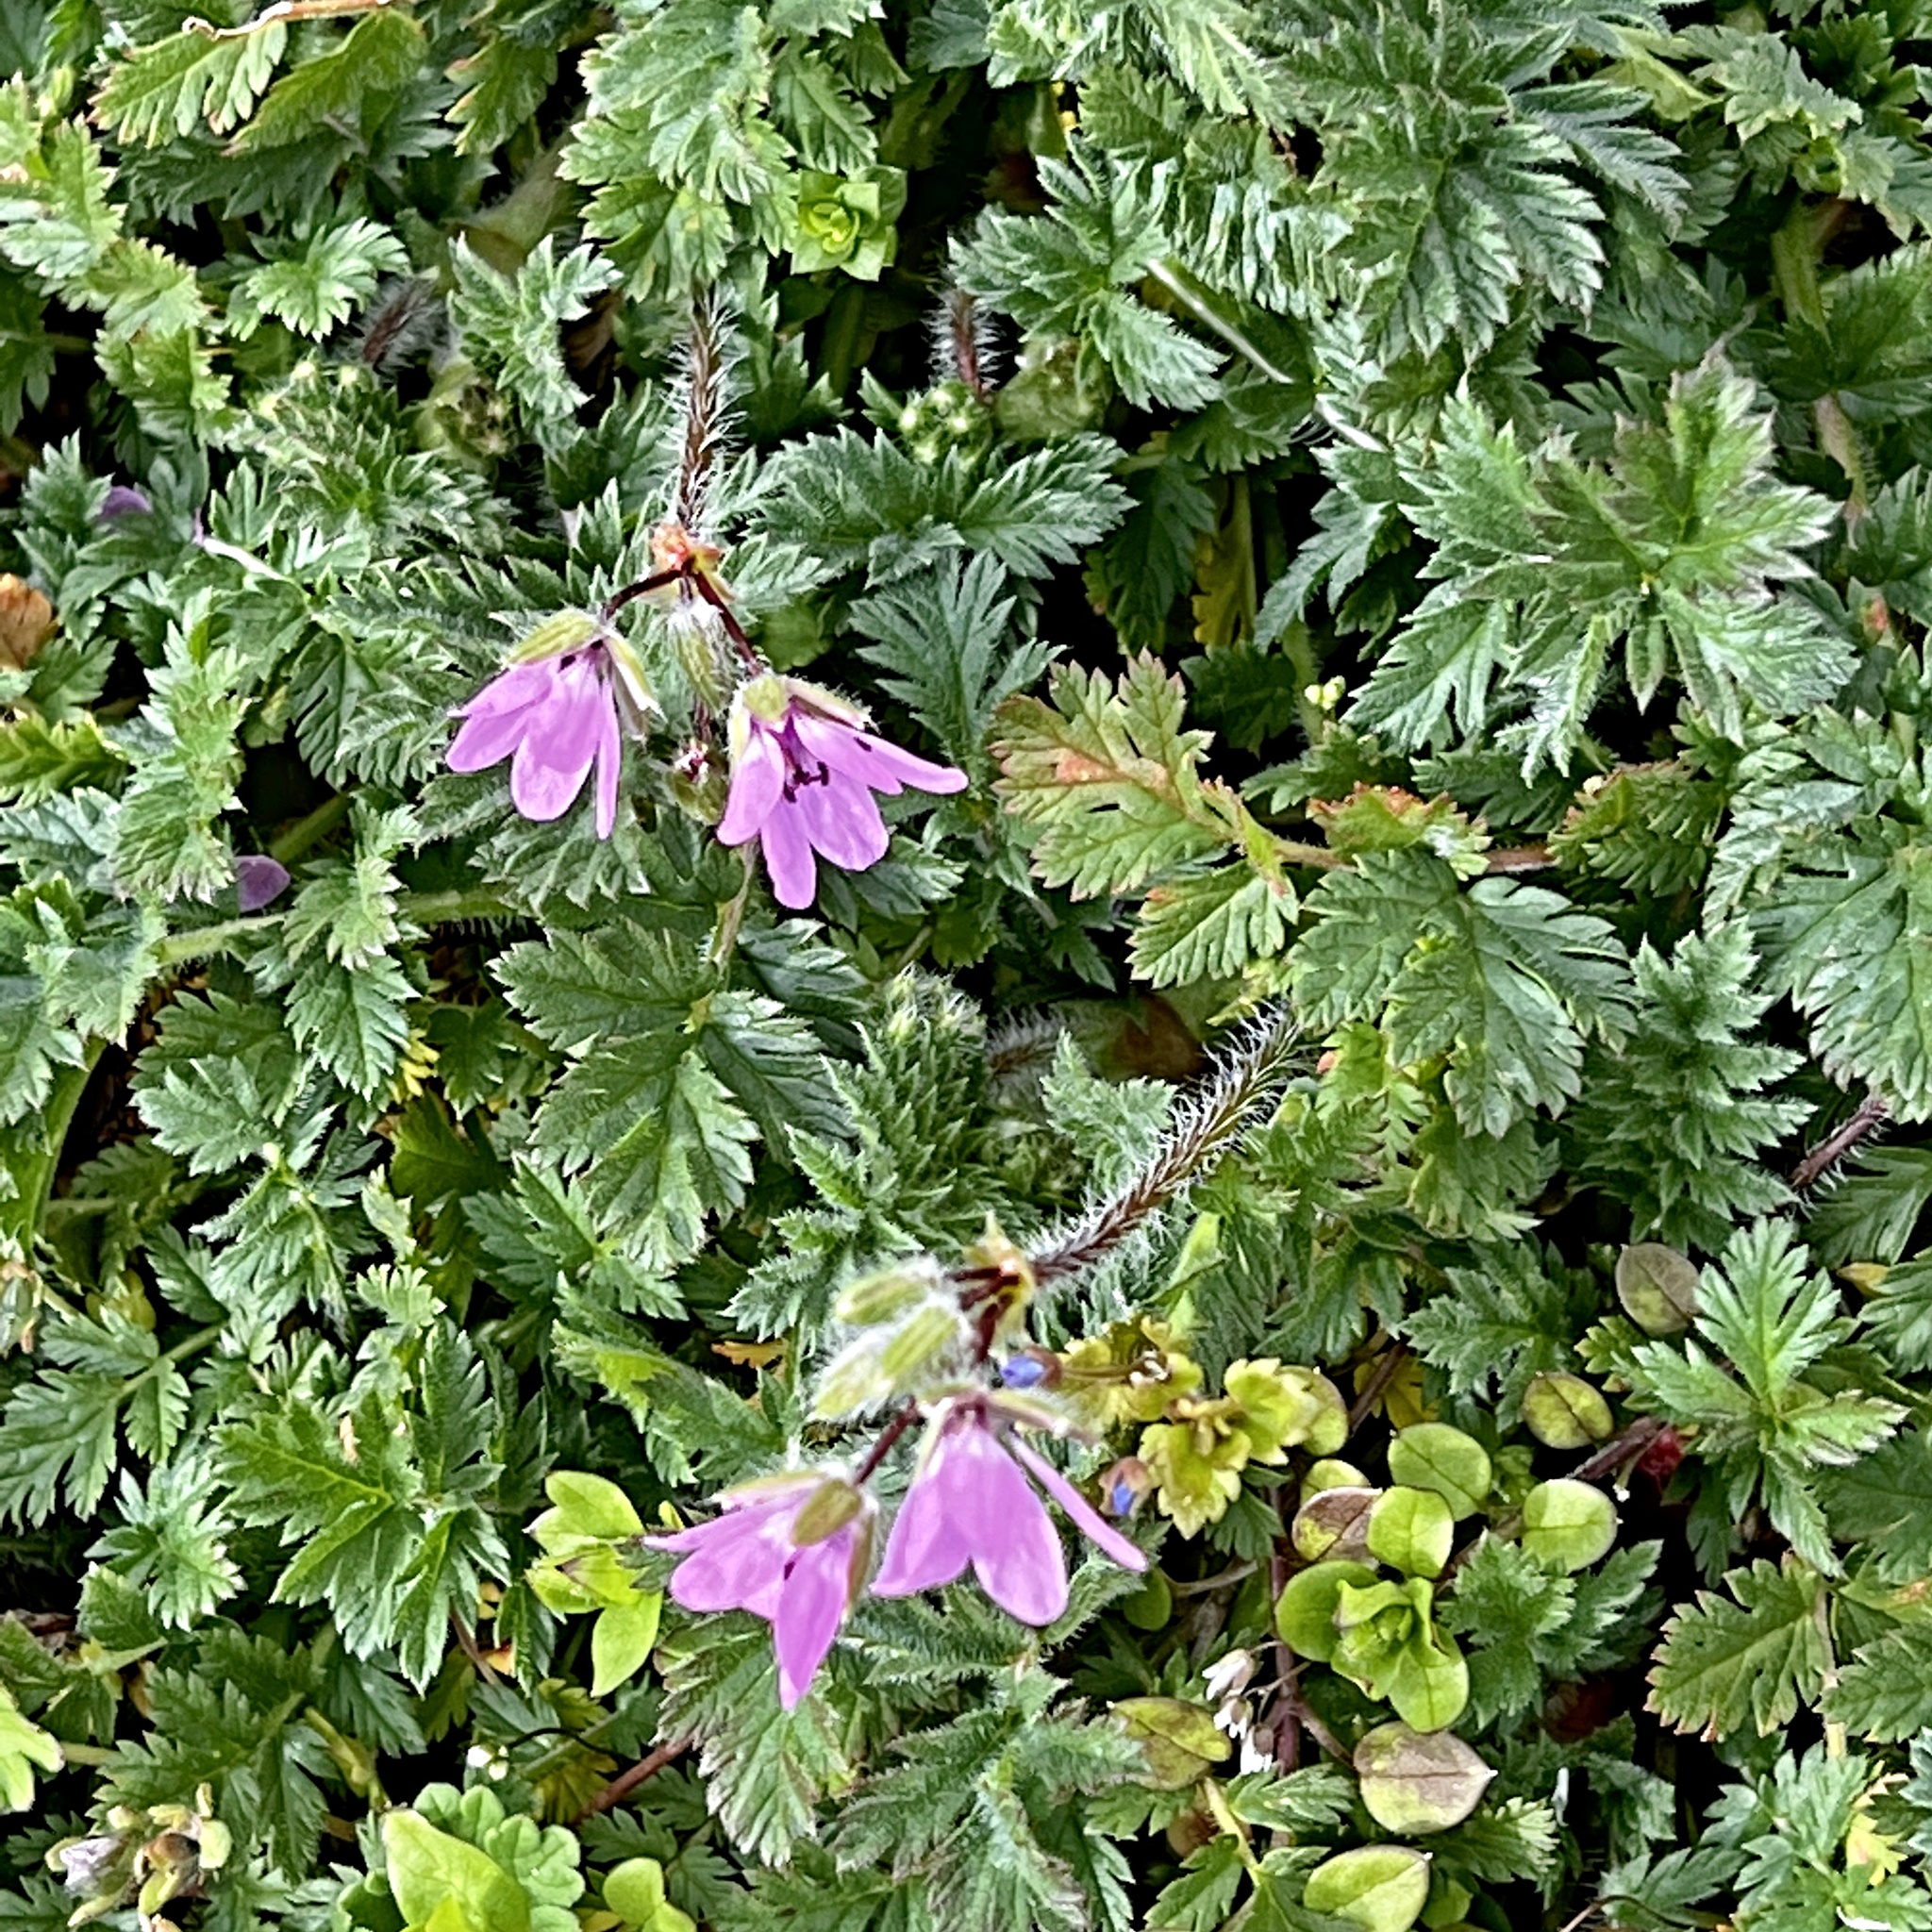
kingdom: Plantae
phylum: Tracheophyta
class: Magnoliopsida
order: Geraniales
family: Geraniaceae
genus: Erodium
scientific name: Erodium cicutarium
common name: Common stork's-bill
